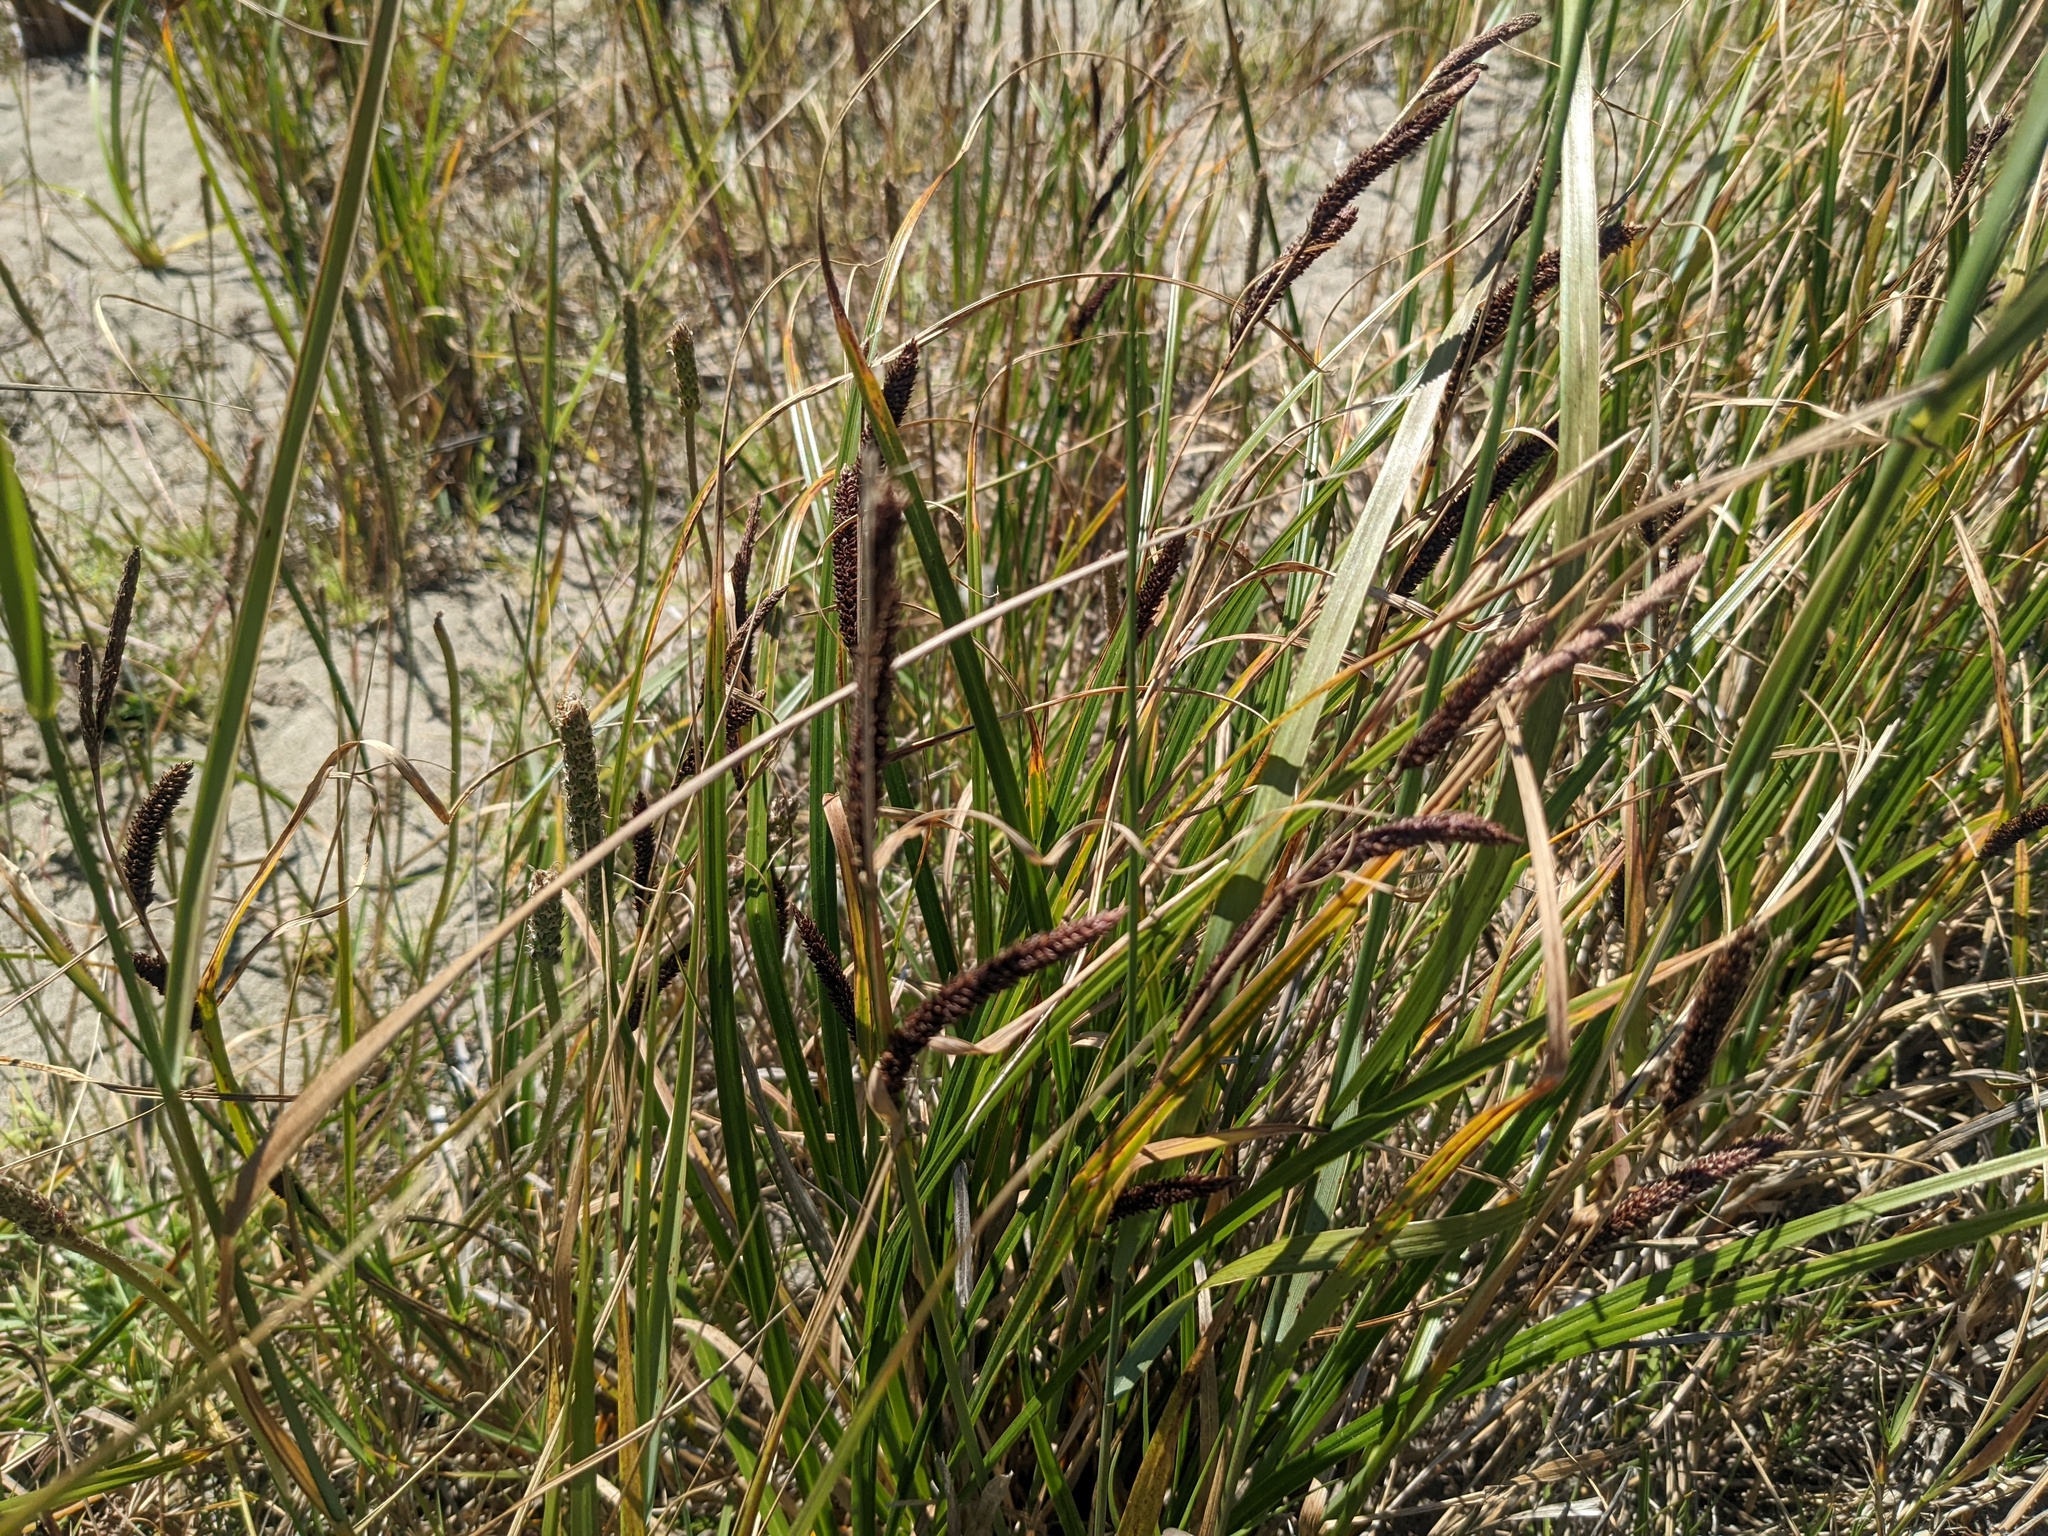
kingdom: Plantae
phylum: Tracheophyta
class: Liliopsida
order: Poales
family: Cyperaceae
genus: Carex
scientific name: Carex obnupta
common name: Slough sedge
